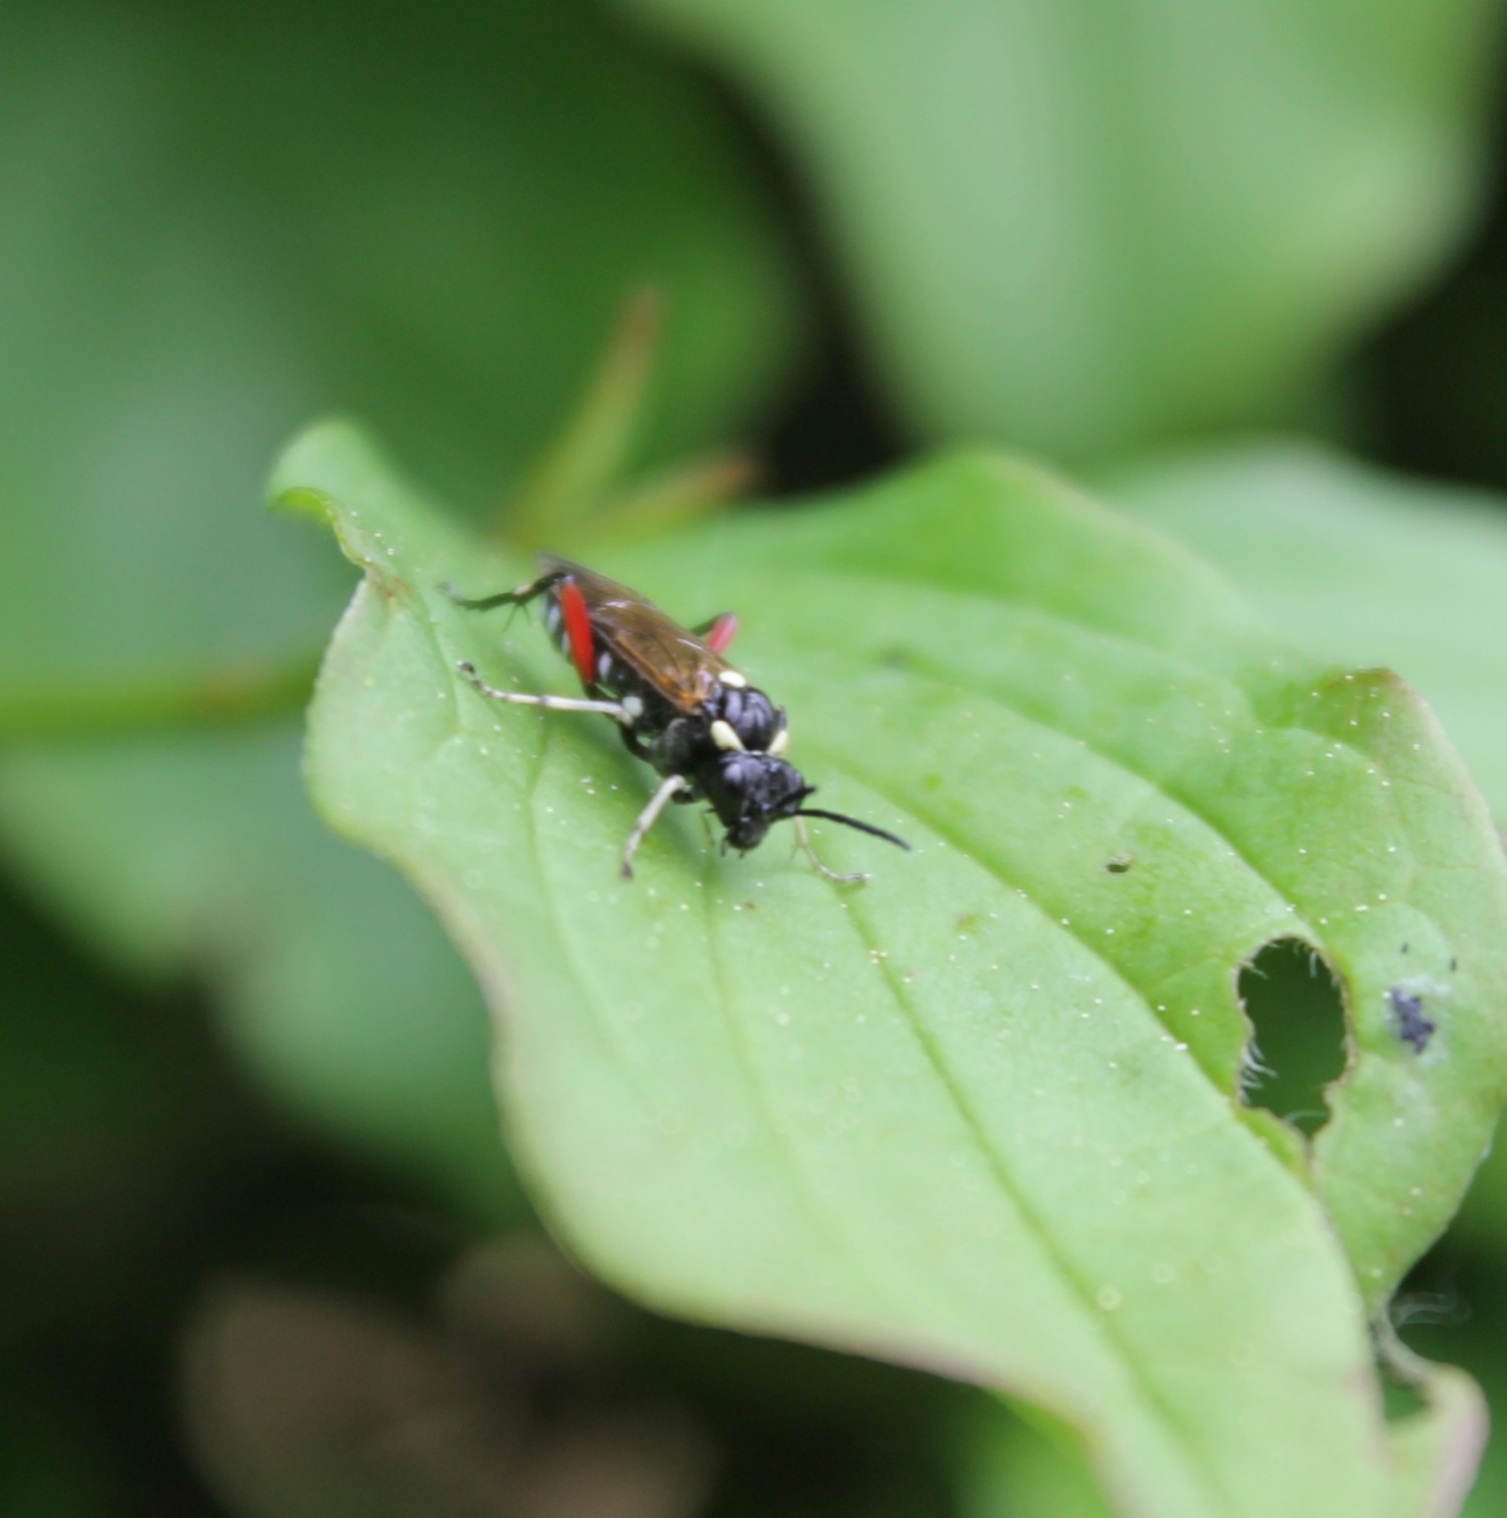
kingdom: Animalia
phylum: Arthropoda
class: Insecta
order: Hymenoptera
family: Tenthredinidae
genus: Macrophya
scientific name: Macrophya punctumalbum
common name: Sawfly
